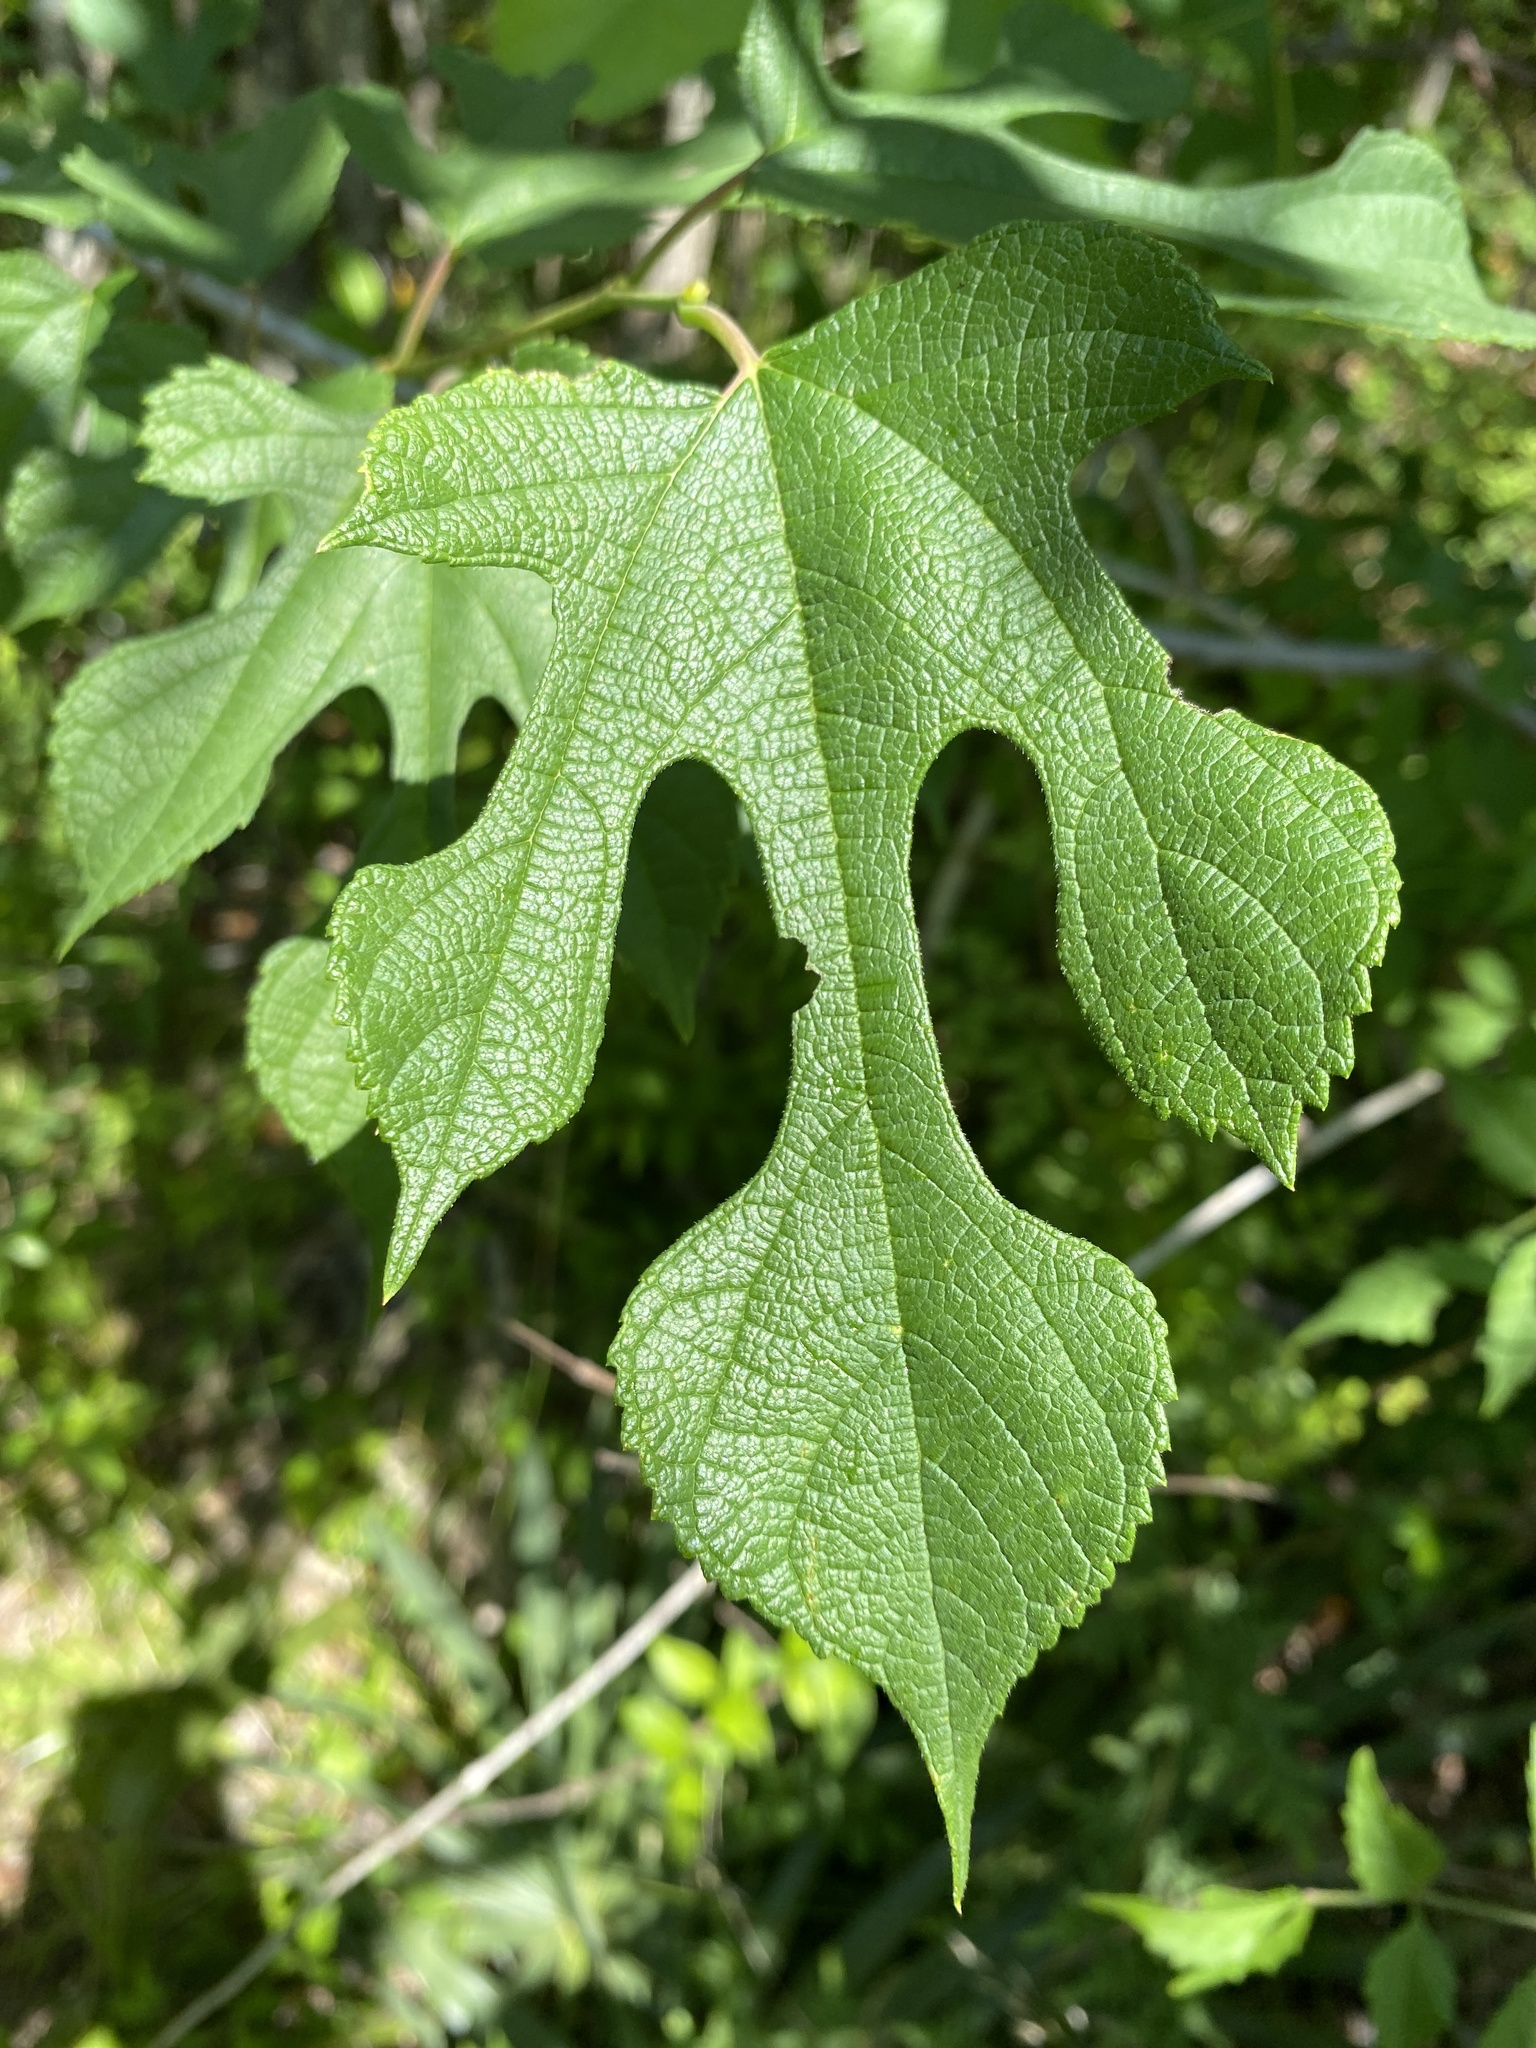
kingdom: Plantae
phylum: Tracheophyta
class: Magnoliopsida
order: Rosales
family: Moraceae
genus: Morus
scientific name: Morus rubra
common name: Red mulberry
